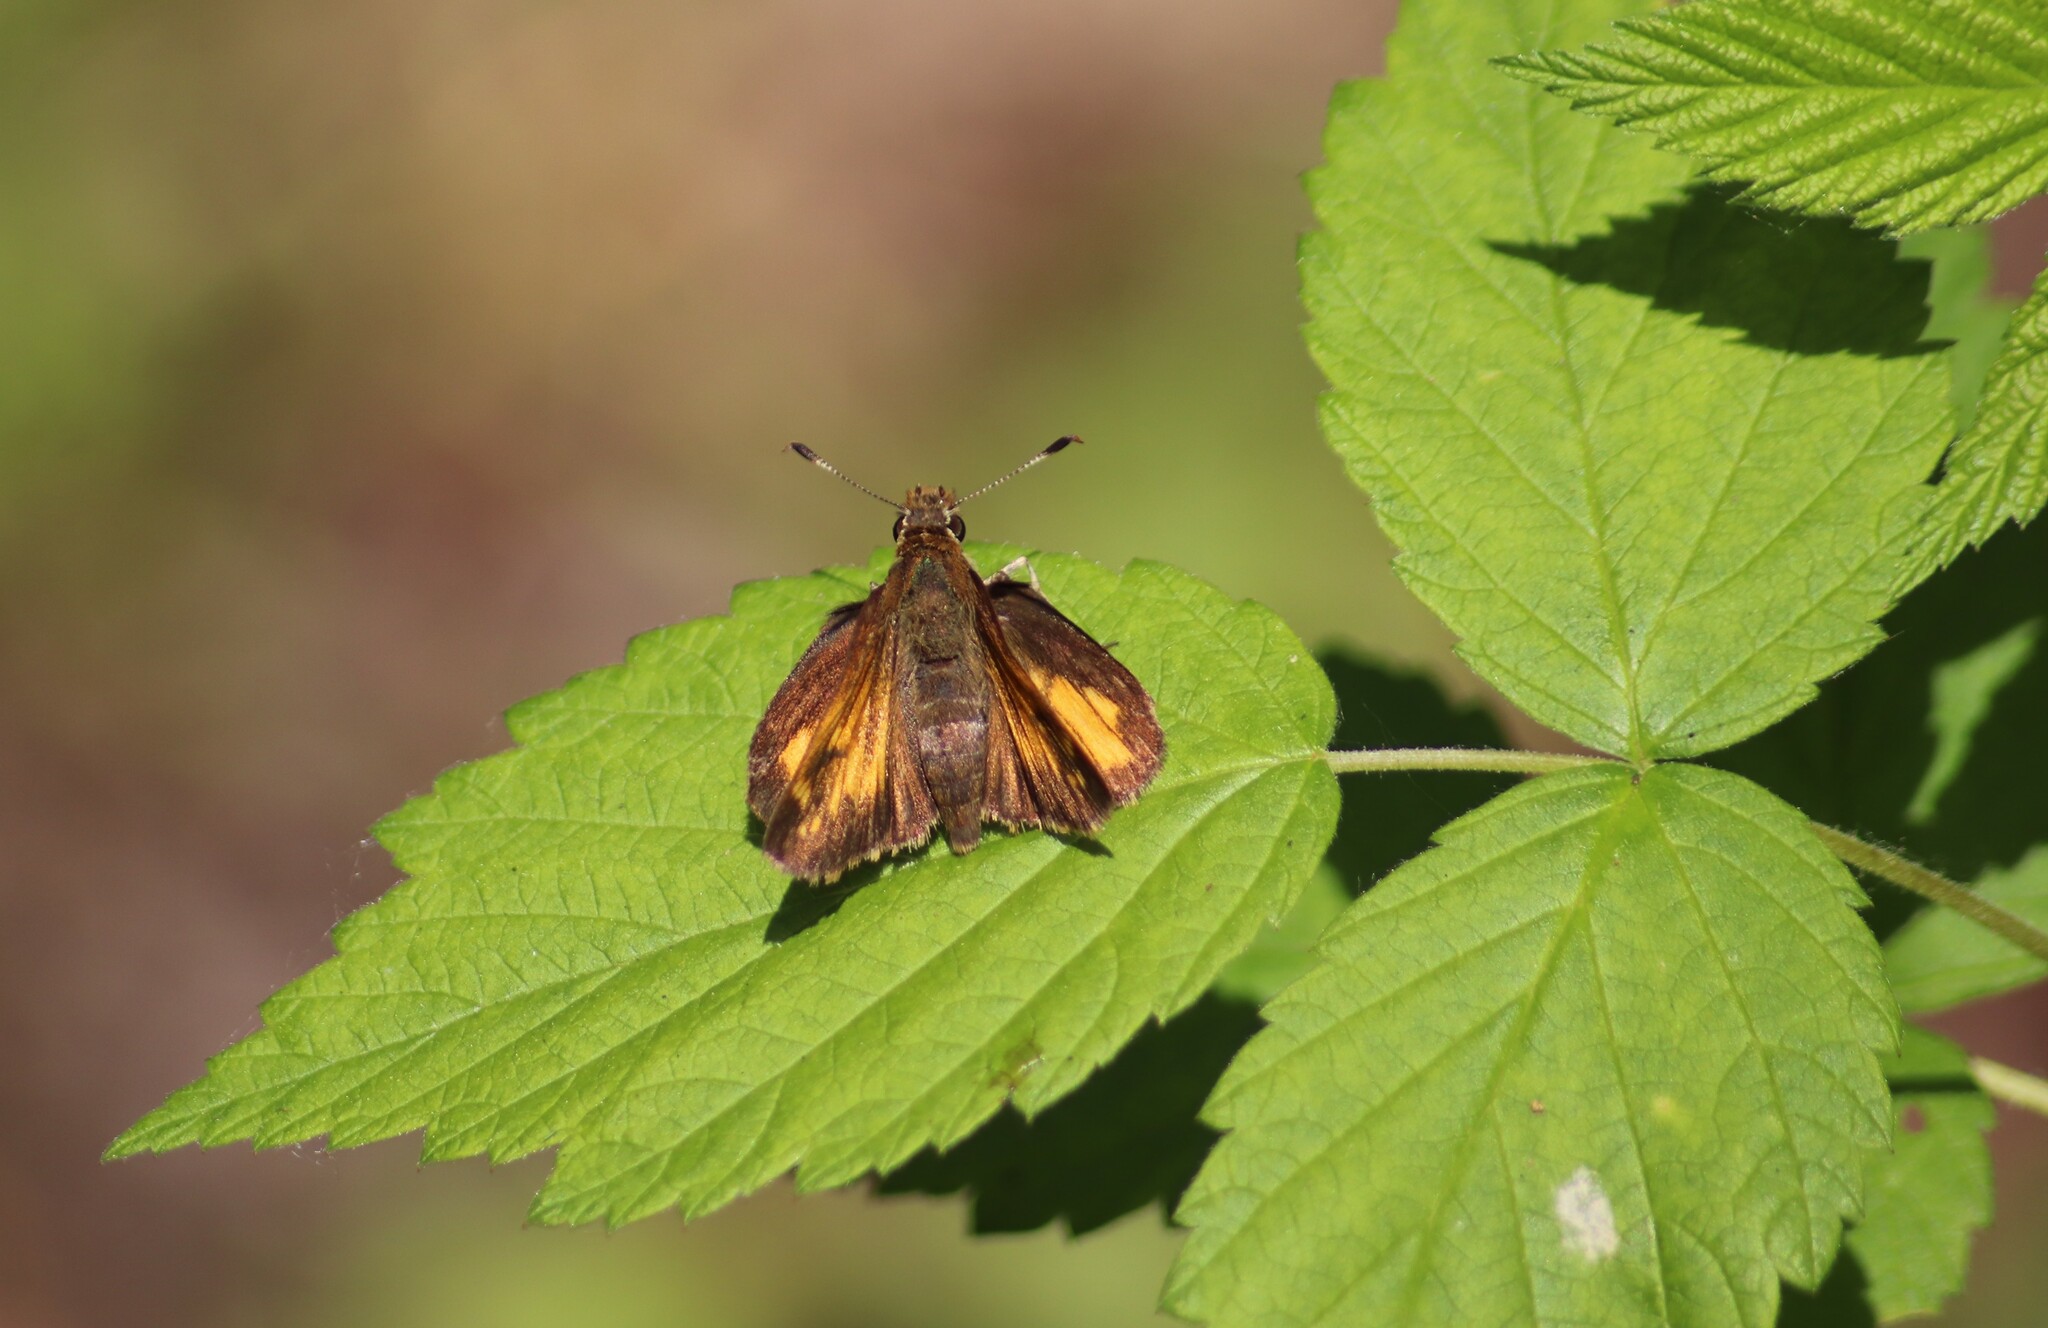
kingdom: Animalia
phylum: Arthropoda
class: Insecta
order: Lepidoptera
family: Hesperiidae
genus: Lon
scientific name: Lon hobomok
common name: Hobomok skipper
